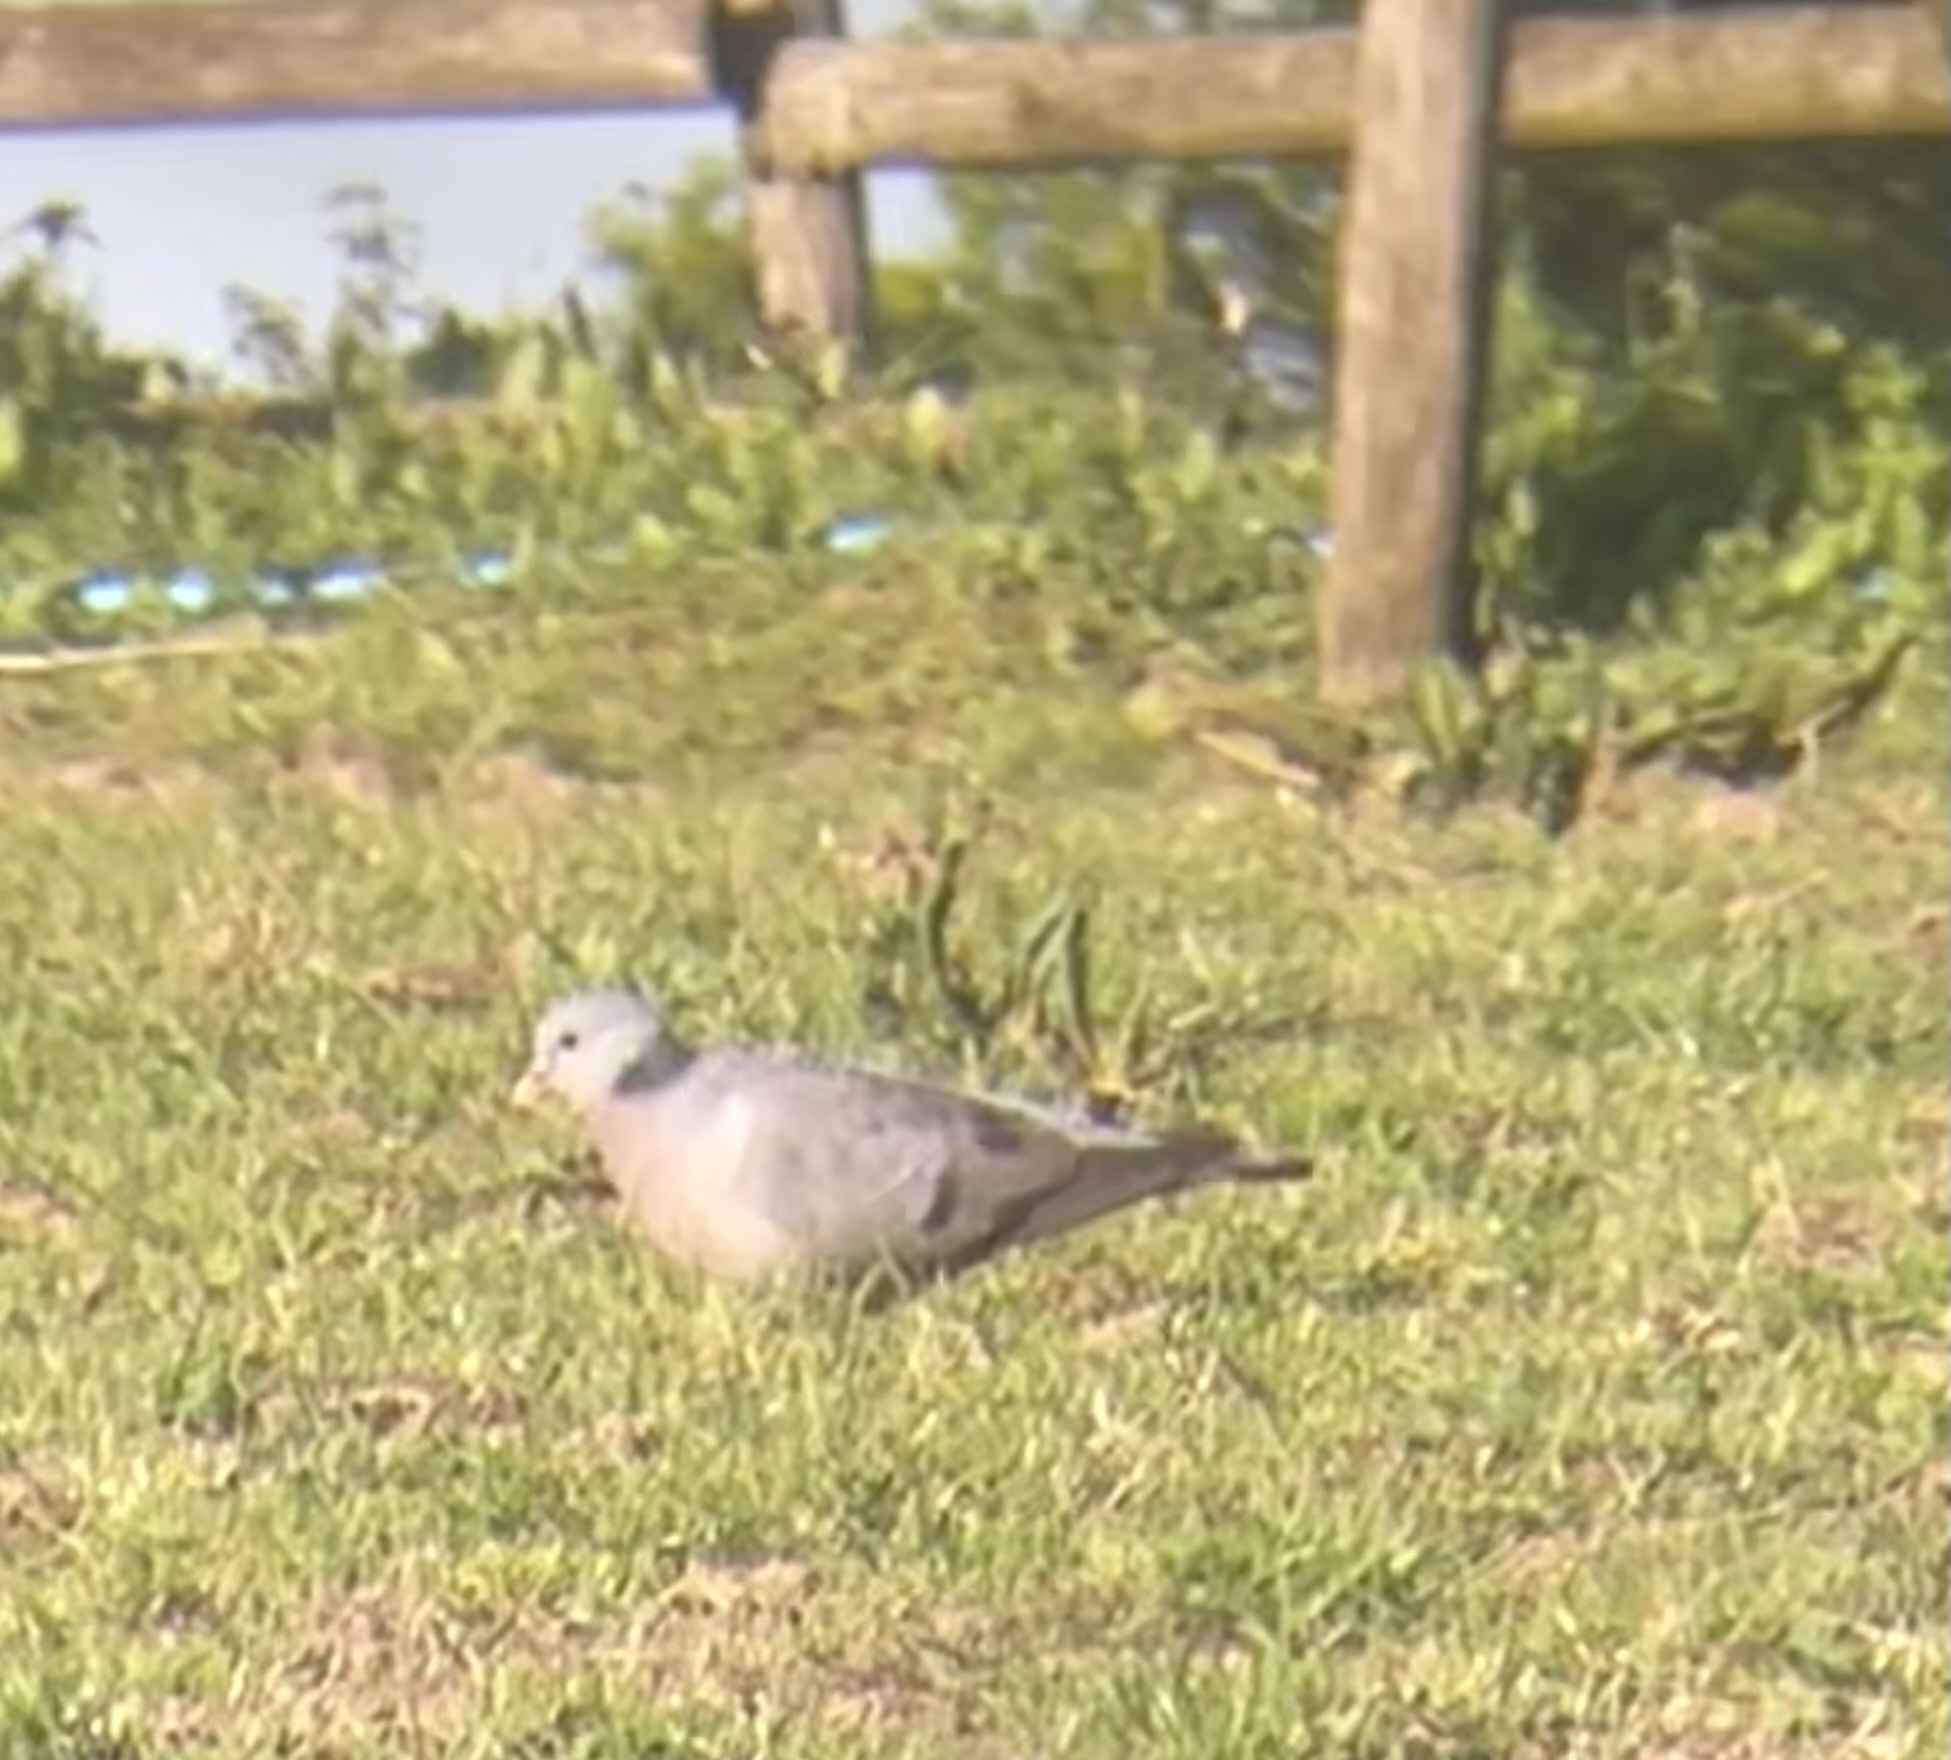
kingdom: Animalia
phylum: Chordata
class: Aves
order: Columbiformes
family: Columbidae
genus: Columba
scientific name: Columba oenas
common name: Stock dove
